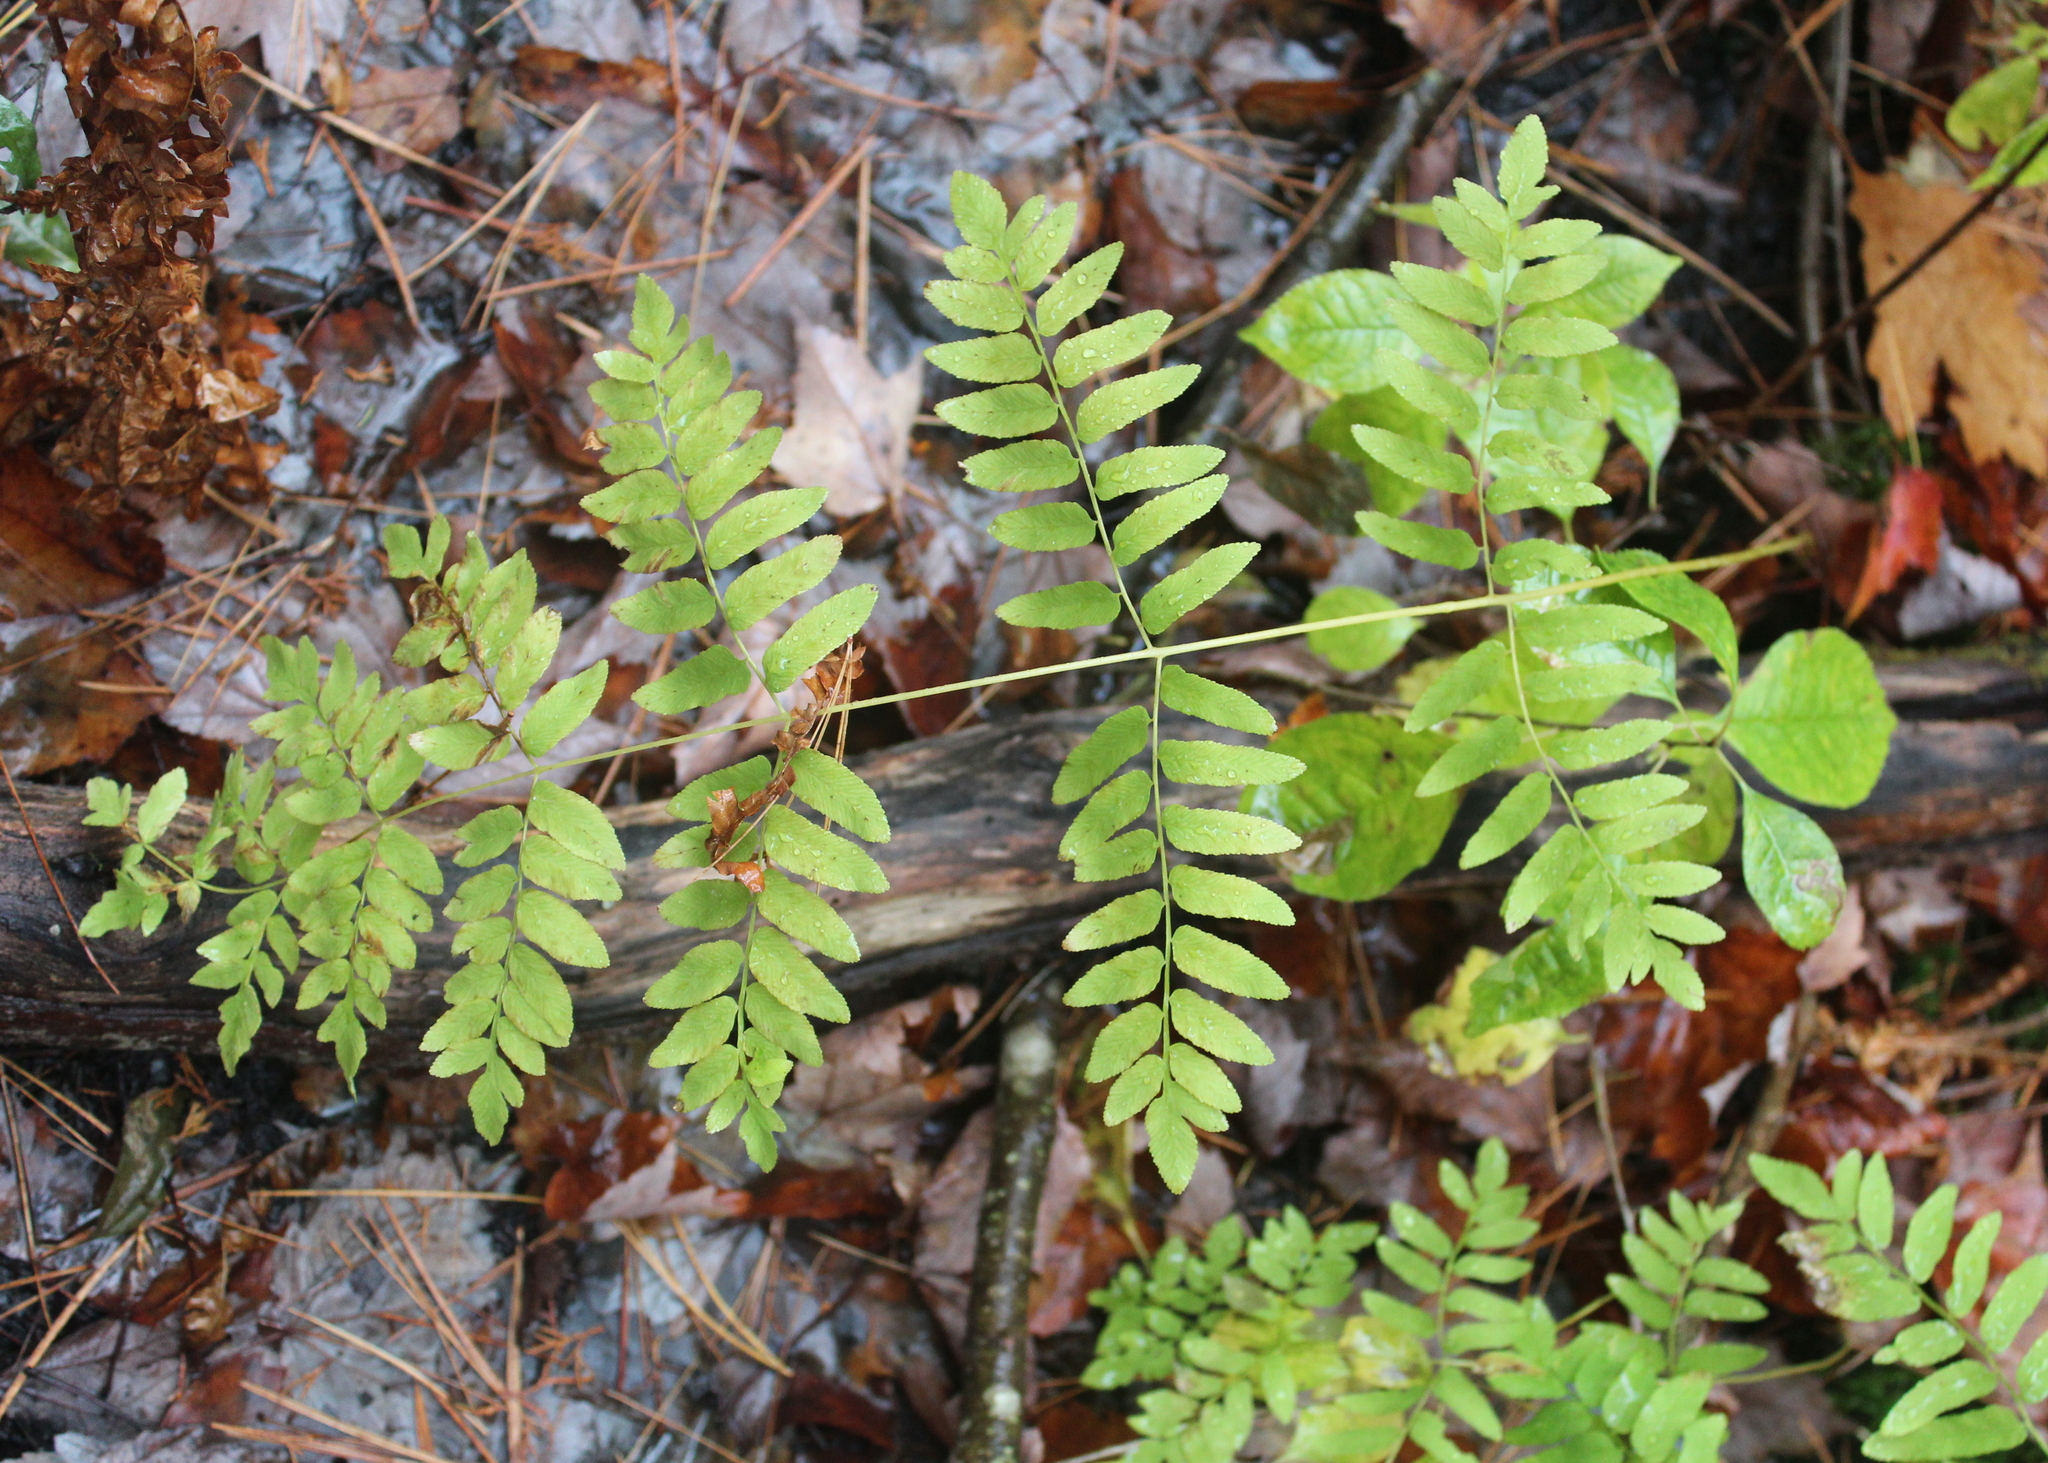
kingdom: Plantae
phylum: Tracheophyta
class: Polypodiopsida
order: Osmundales
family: Osmundaceae
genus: Osmunda
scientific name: Osmunda spectabilis
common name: American royal fern
